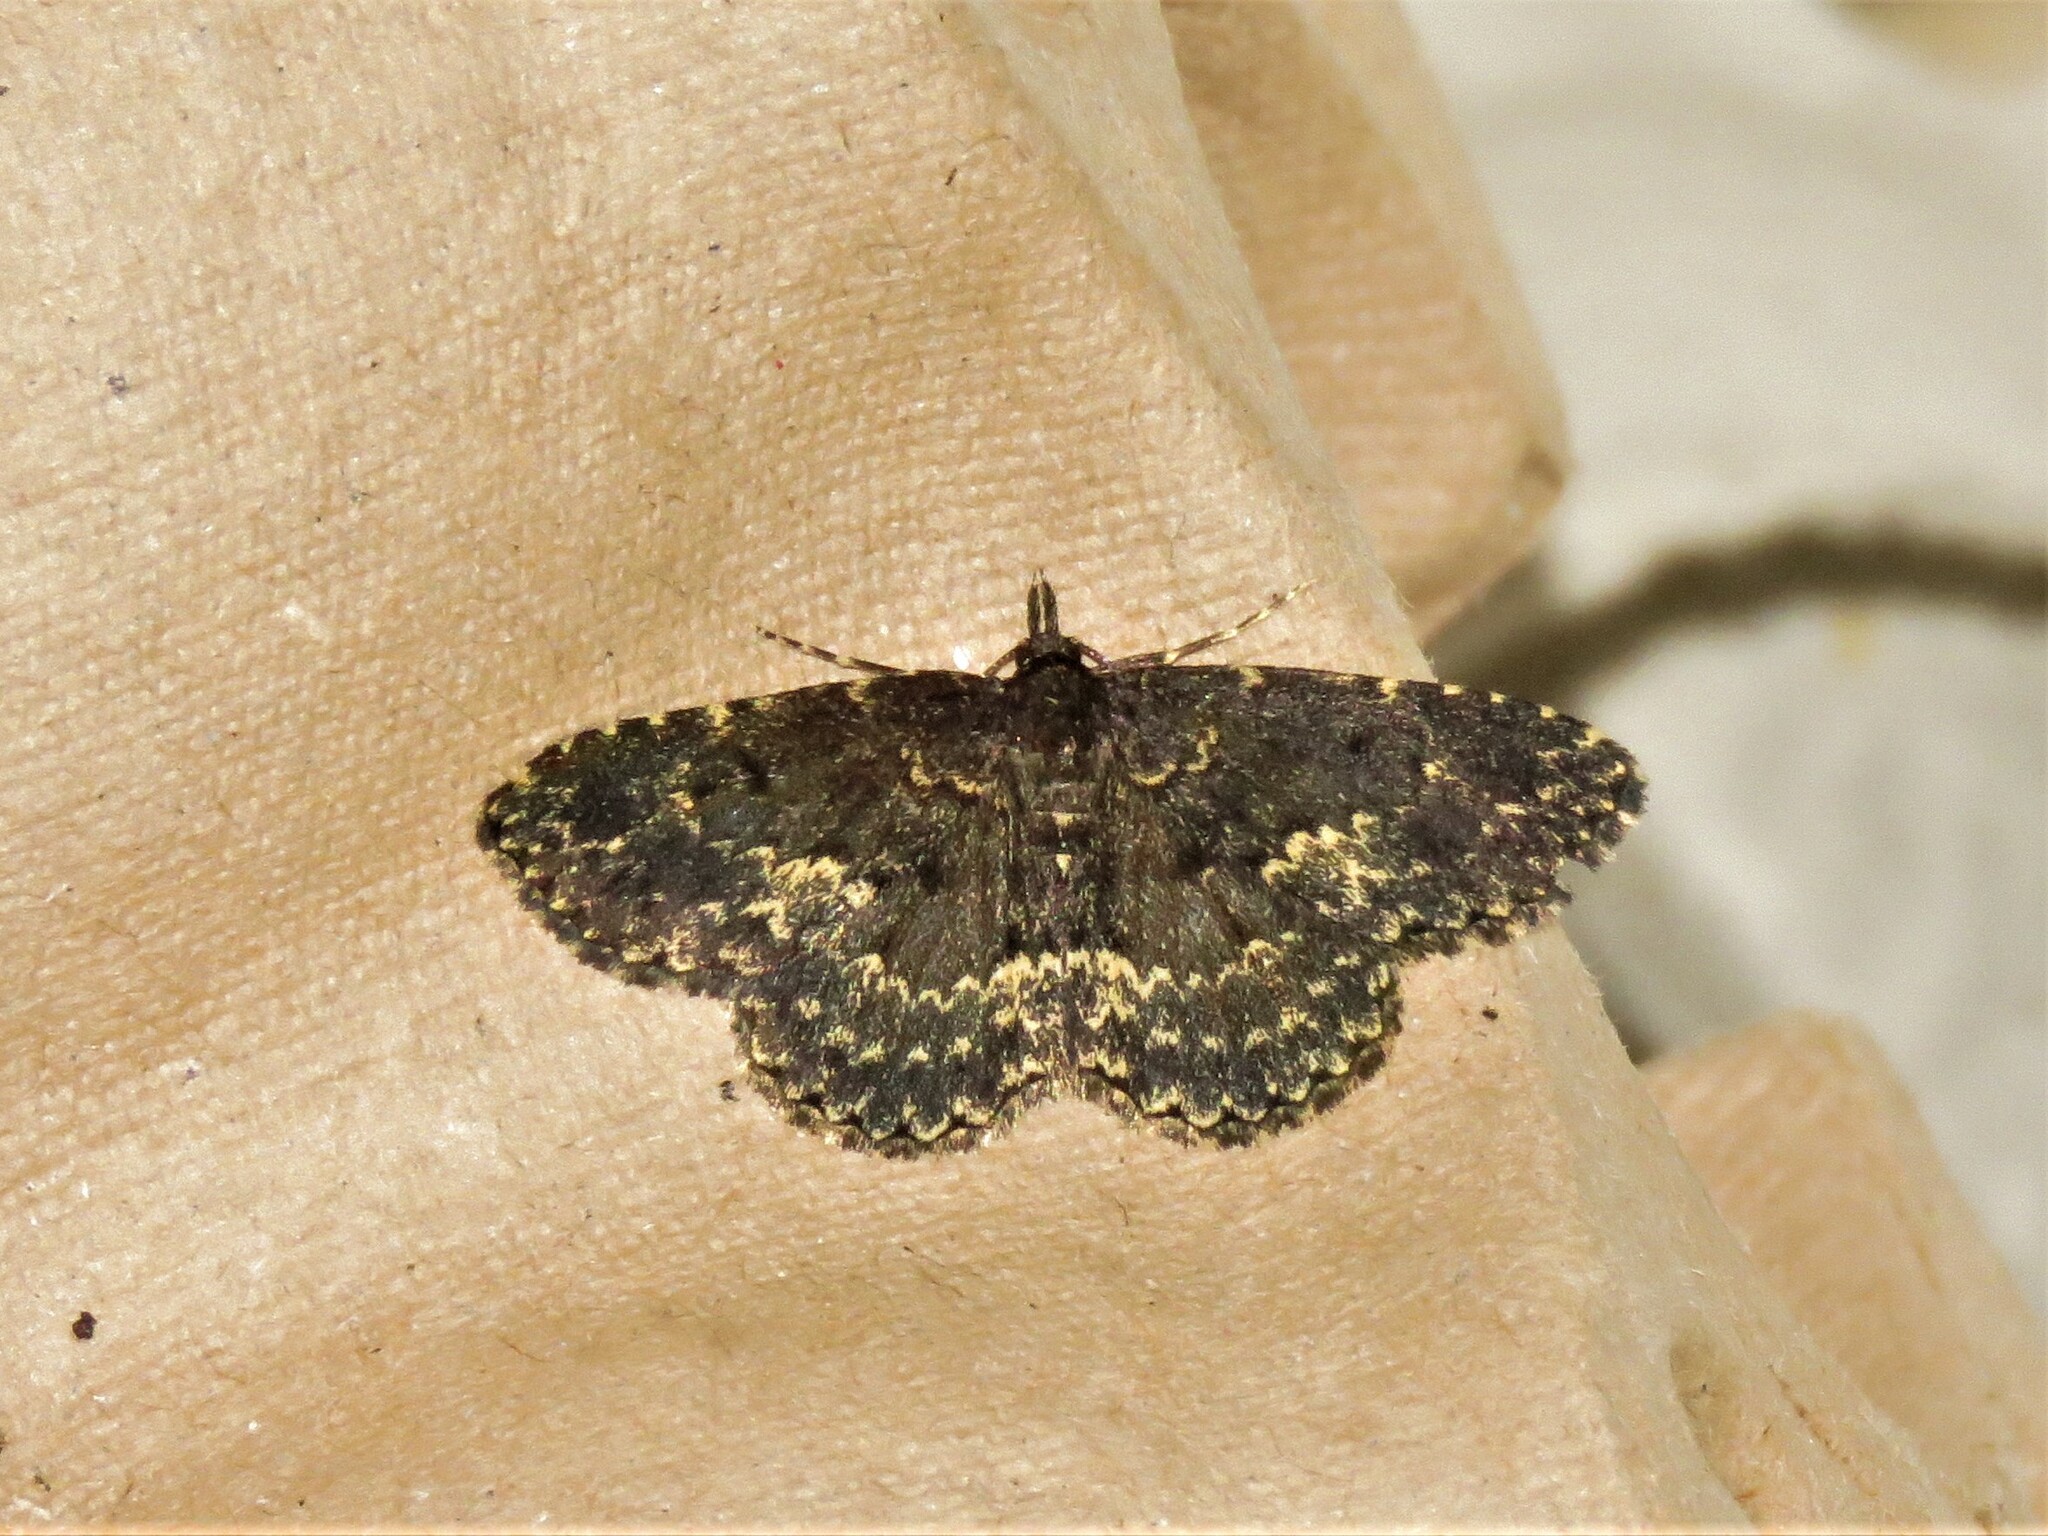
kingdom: Animalia
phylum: Arthropoda
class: Insecta
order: Lepidoptera
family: Erebidae
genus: Parascotia
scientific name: Parascotia fuliginaria
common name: Waved black
